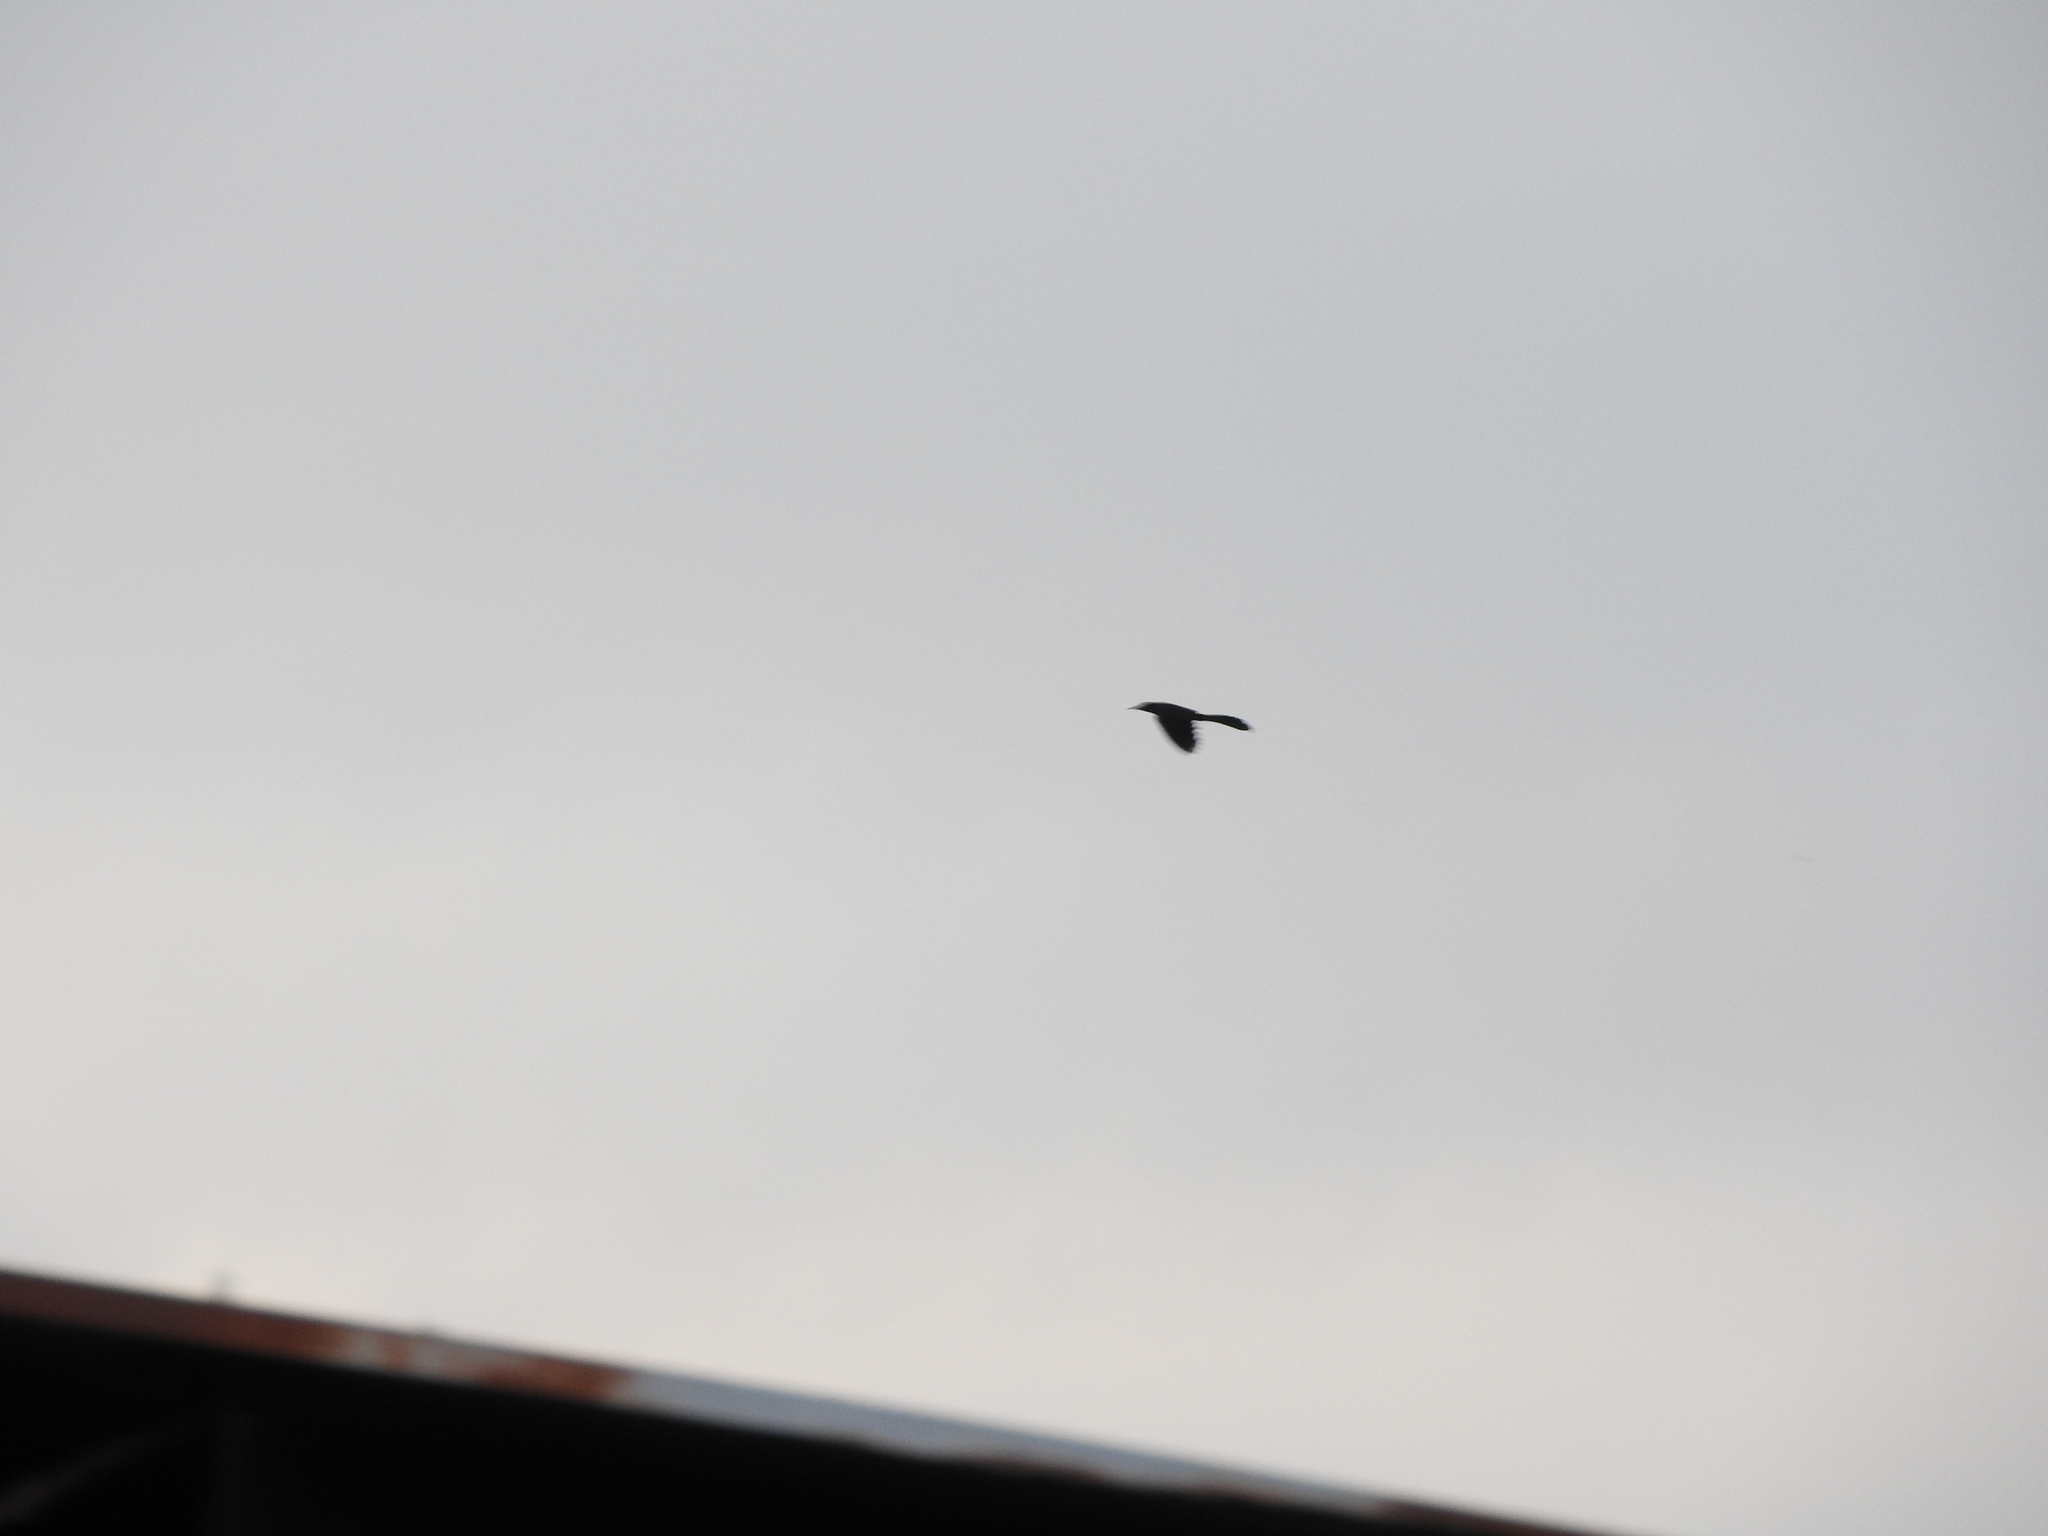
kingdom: Animalia
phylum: Chordata
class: Aves
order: Passeriformes
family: Icteridae
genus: Quiscalus
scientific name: Quiscalus mexicanus
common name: Great-tailed grackle
